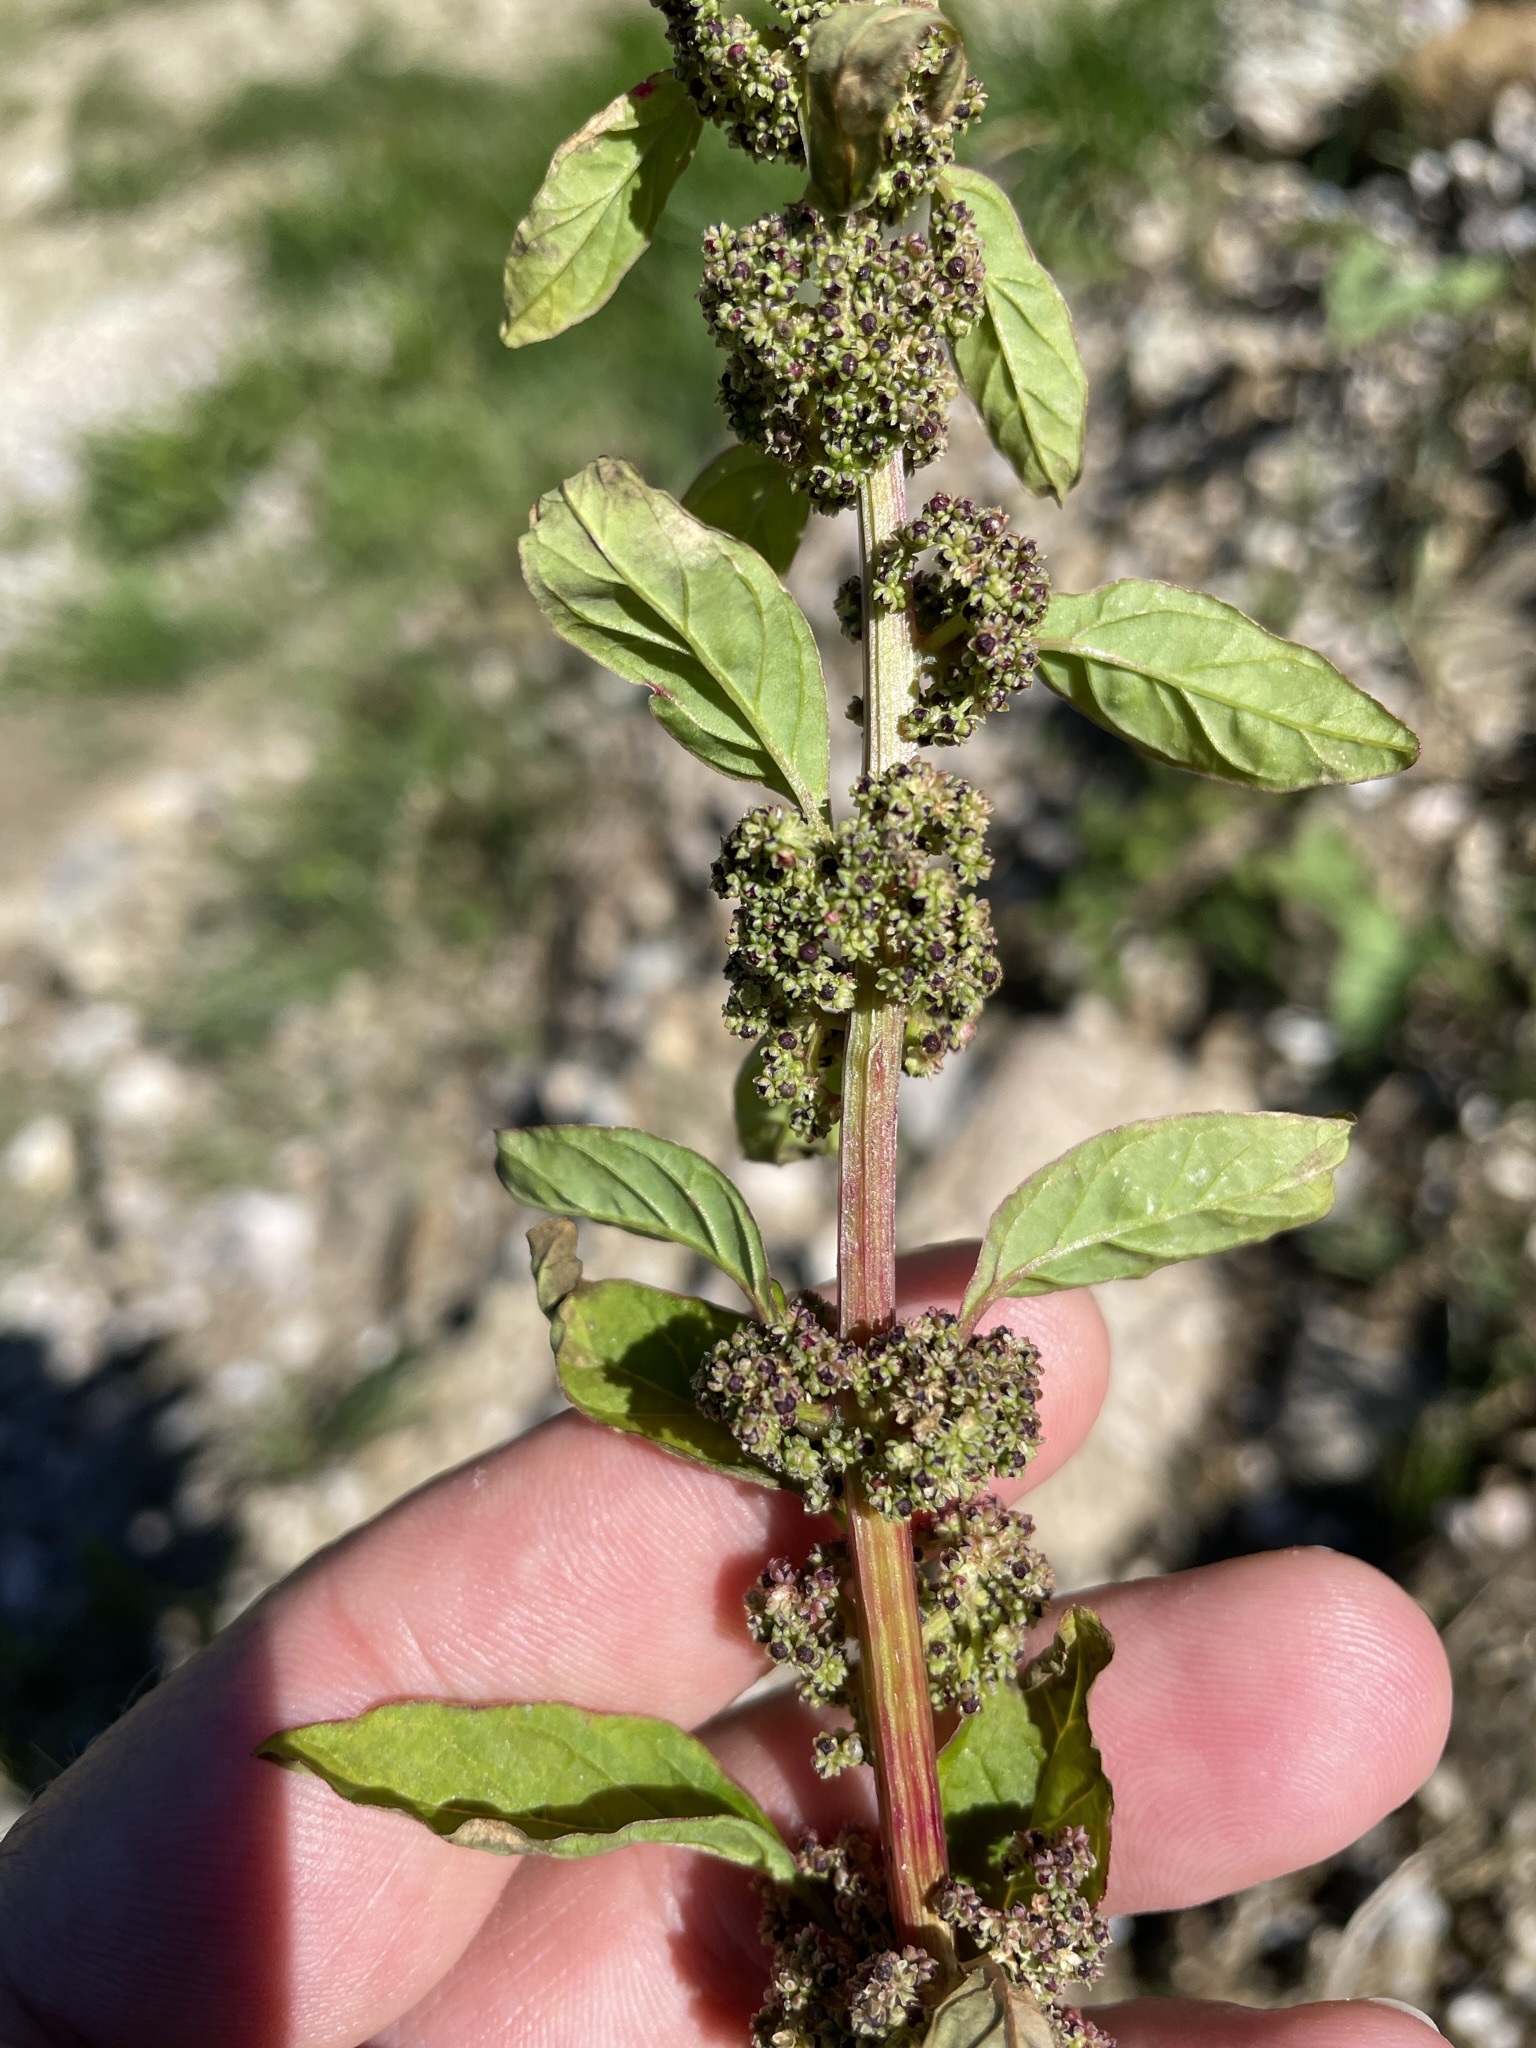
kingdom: Plantae
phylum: Tracheophyta
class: Magnoliopsida
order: Caryophyllales
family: Amaranthaceae
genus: Lipandra
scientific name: Lipandra polysperma
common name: Many-seed goosefoot
